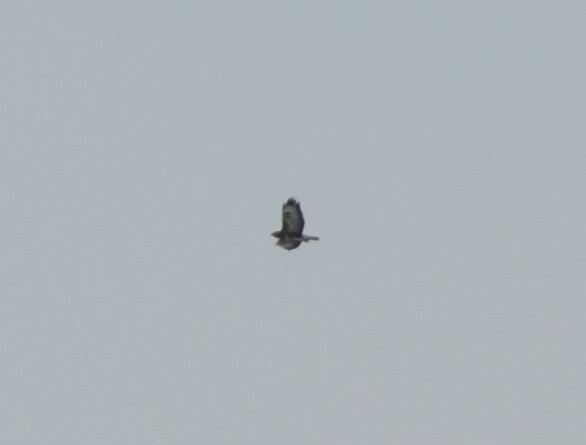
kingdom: Animalia
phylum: Chordata
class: Aves
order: Accipitriformes
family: Accipitridae
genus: Buteo
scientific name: Buteo lagopus
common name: Rough-legged buzzard
